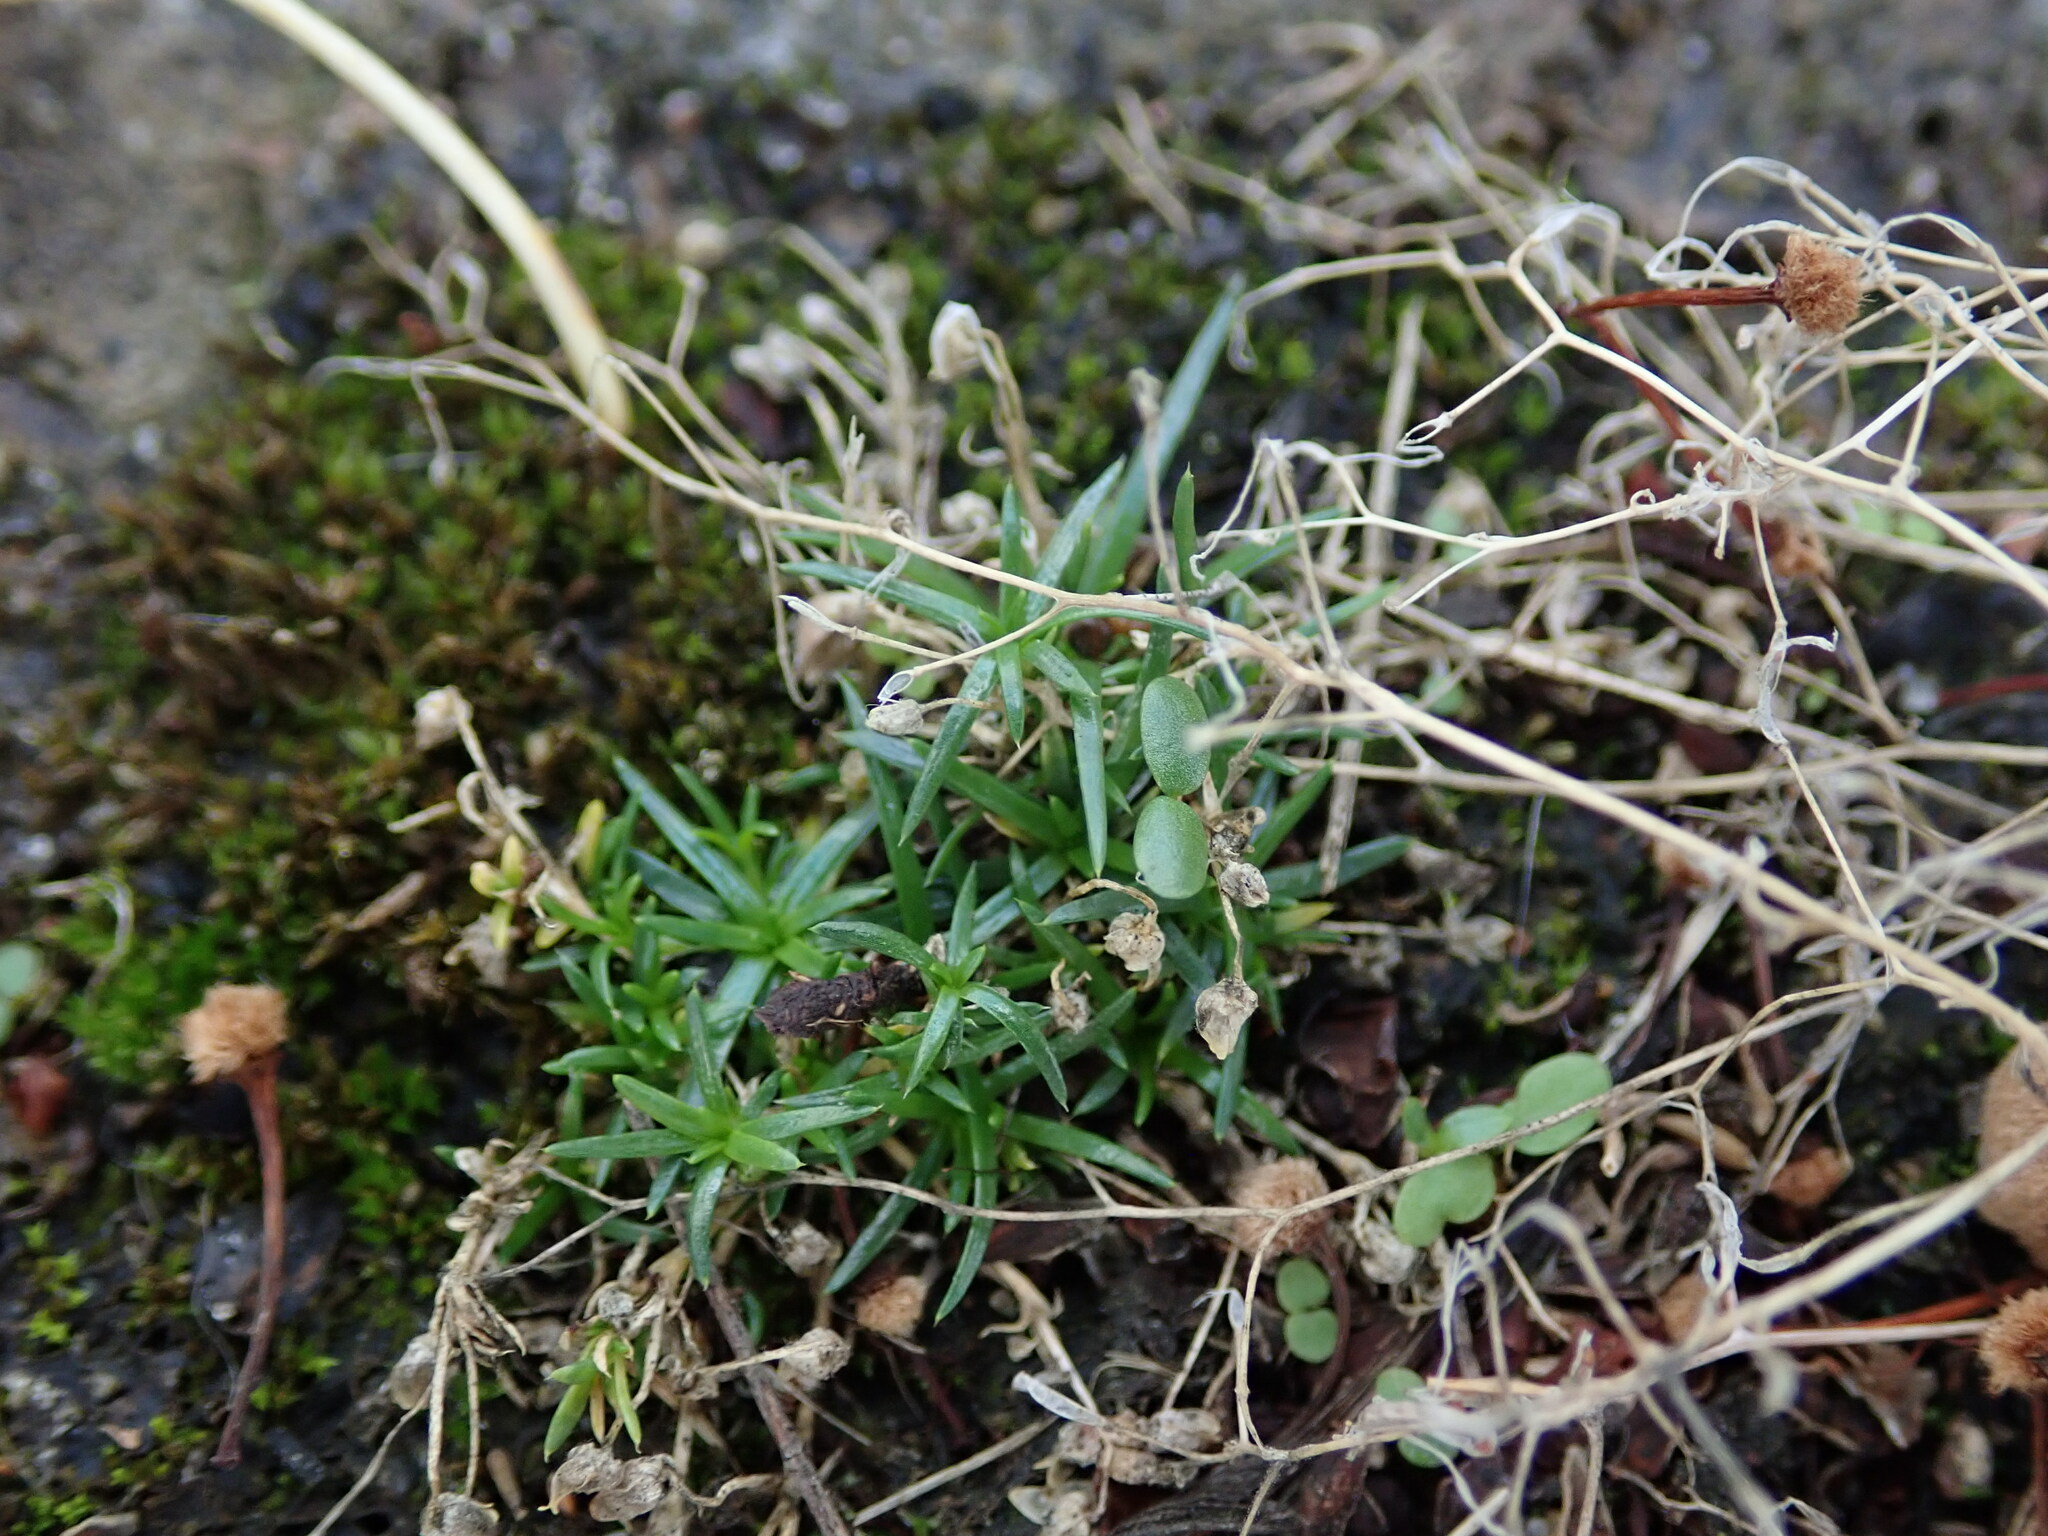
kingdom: Plantae
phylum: Tracheophyta
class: Magnoliopsida
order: Caryophyllales
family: Caryophyllaceae
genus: Sagina
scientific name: Sagina procumbens
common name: Procumbent pearlwort
